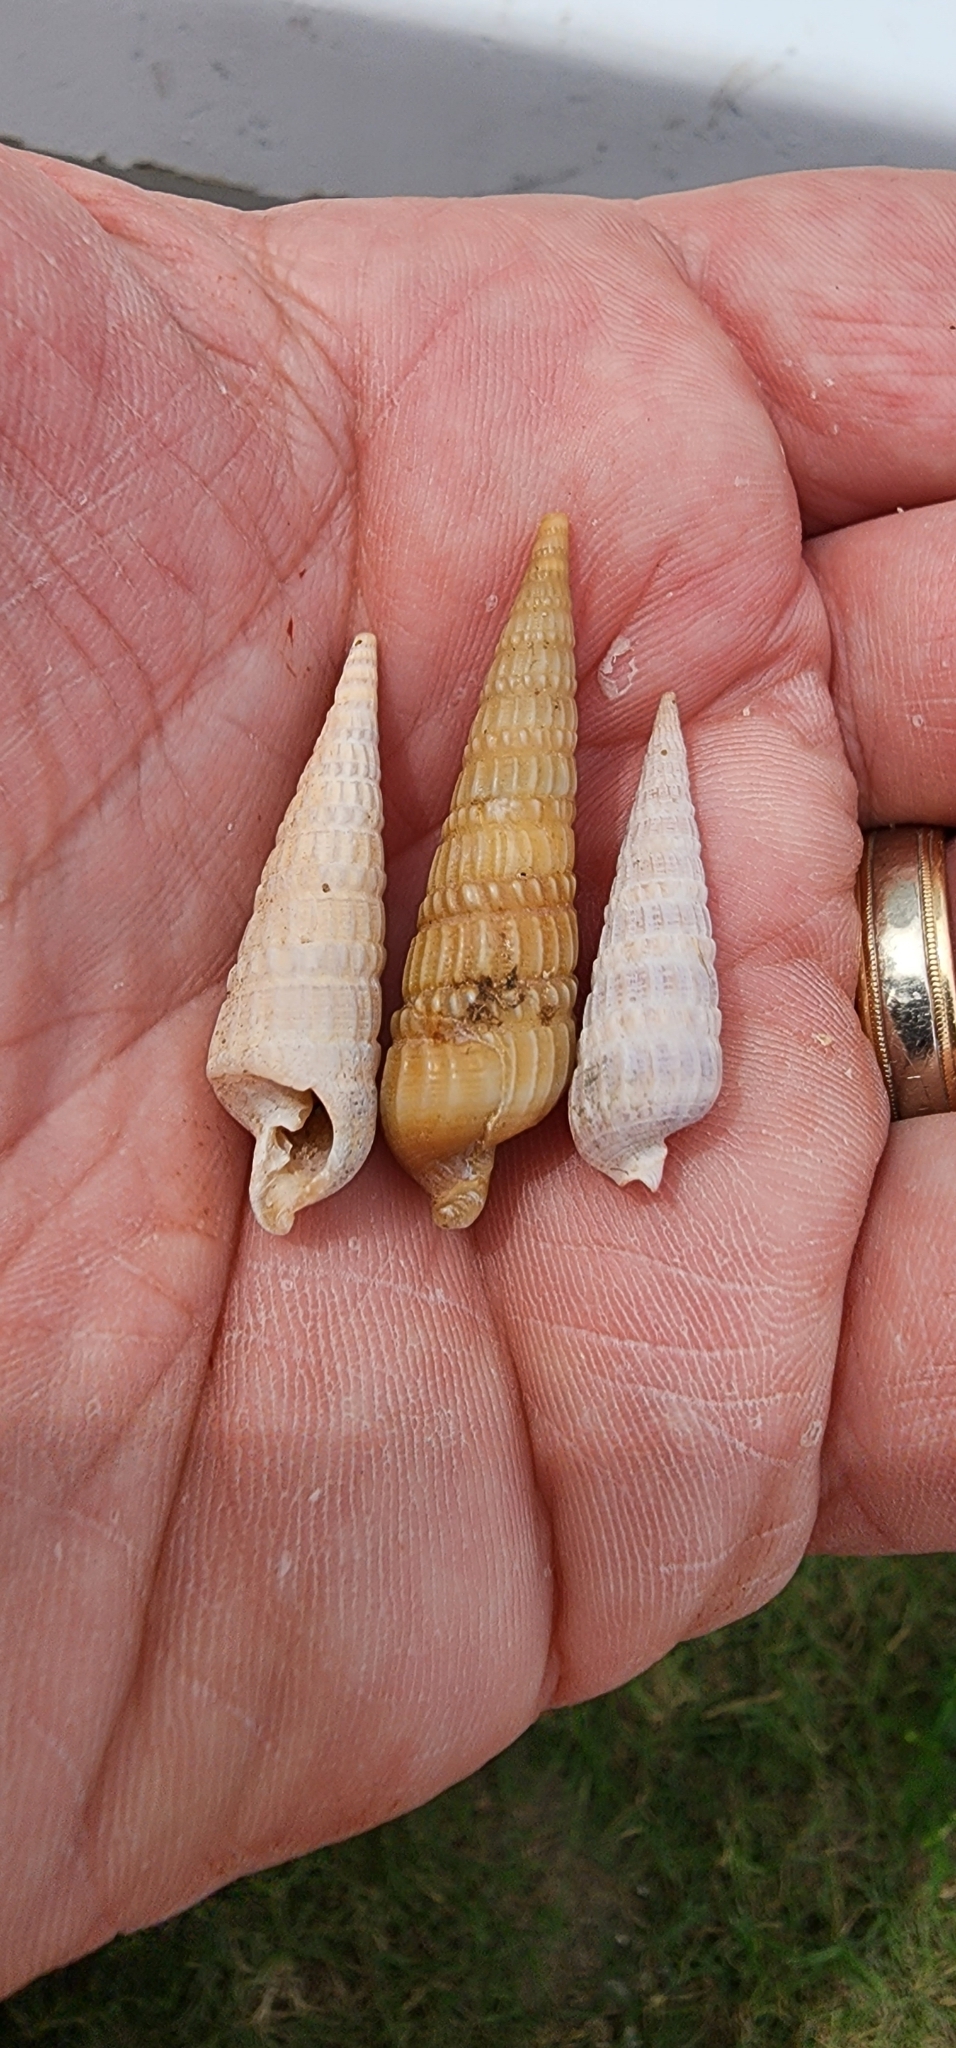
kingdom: Animalia
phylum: Mollusca
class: Gastropoda
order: Neogastropoda
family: Terebridae
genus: Neoterebra
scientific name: Neoterebra dislocata
